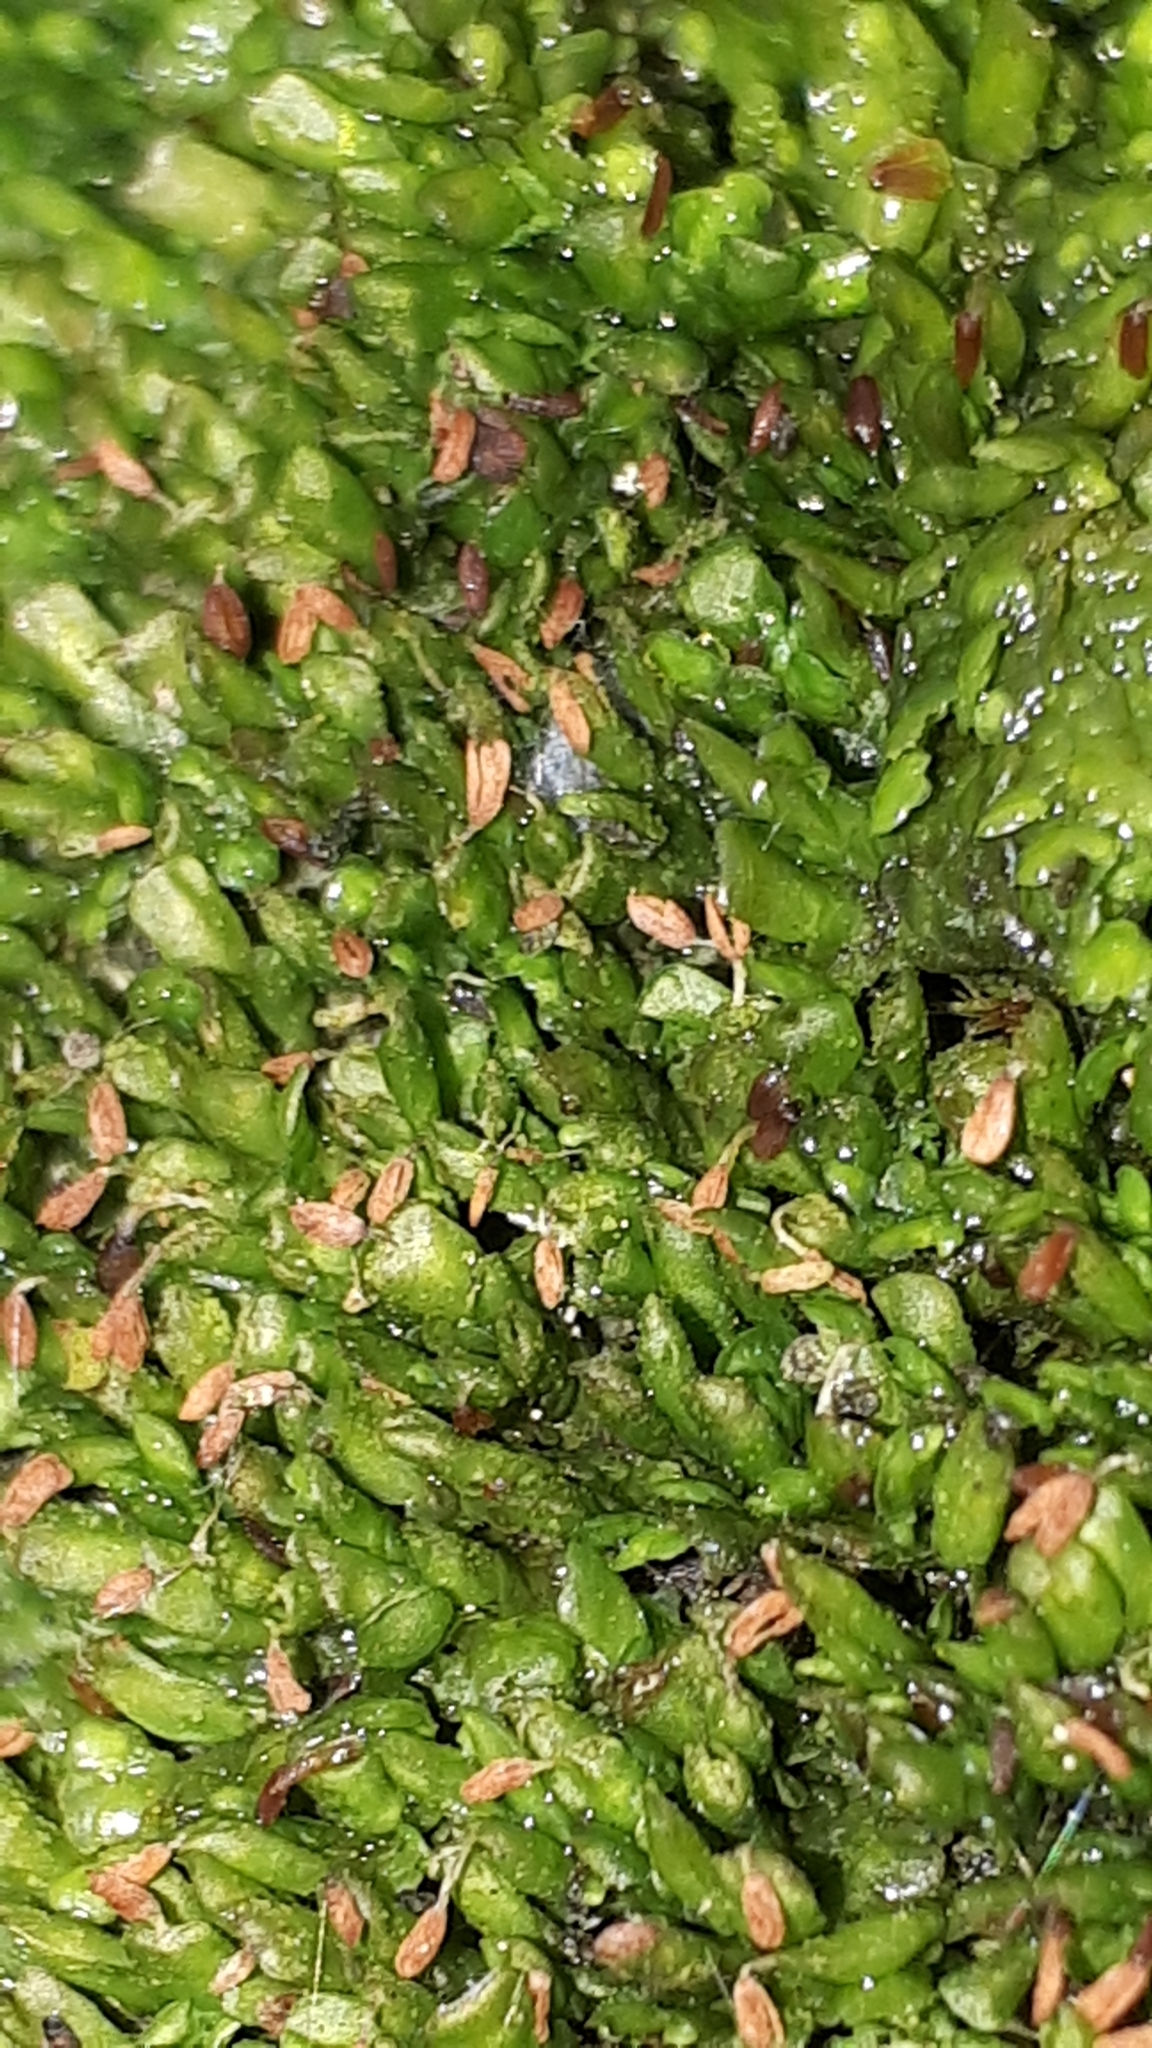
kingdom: Plantae
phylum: Marchantiophyta
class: Jungermanniopsida
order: Porellales
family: Radulaceae
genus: Radula
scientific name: Radula complanata
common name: Flat-leaved scalewort
